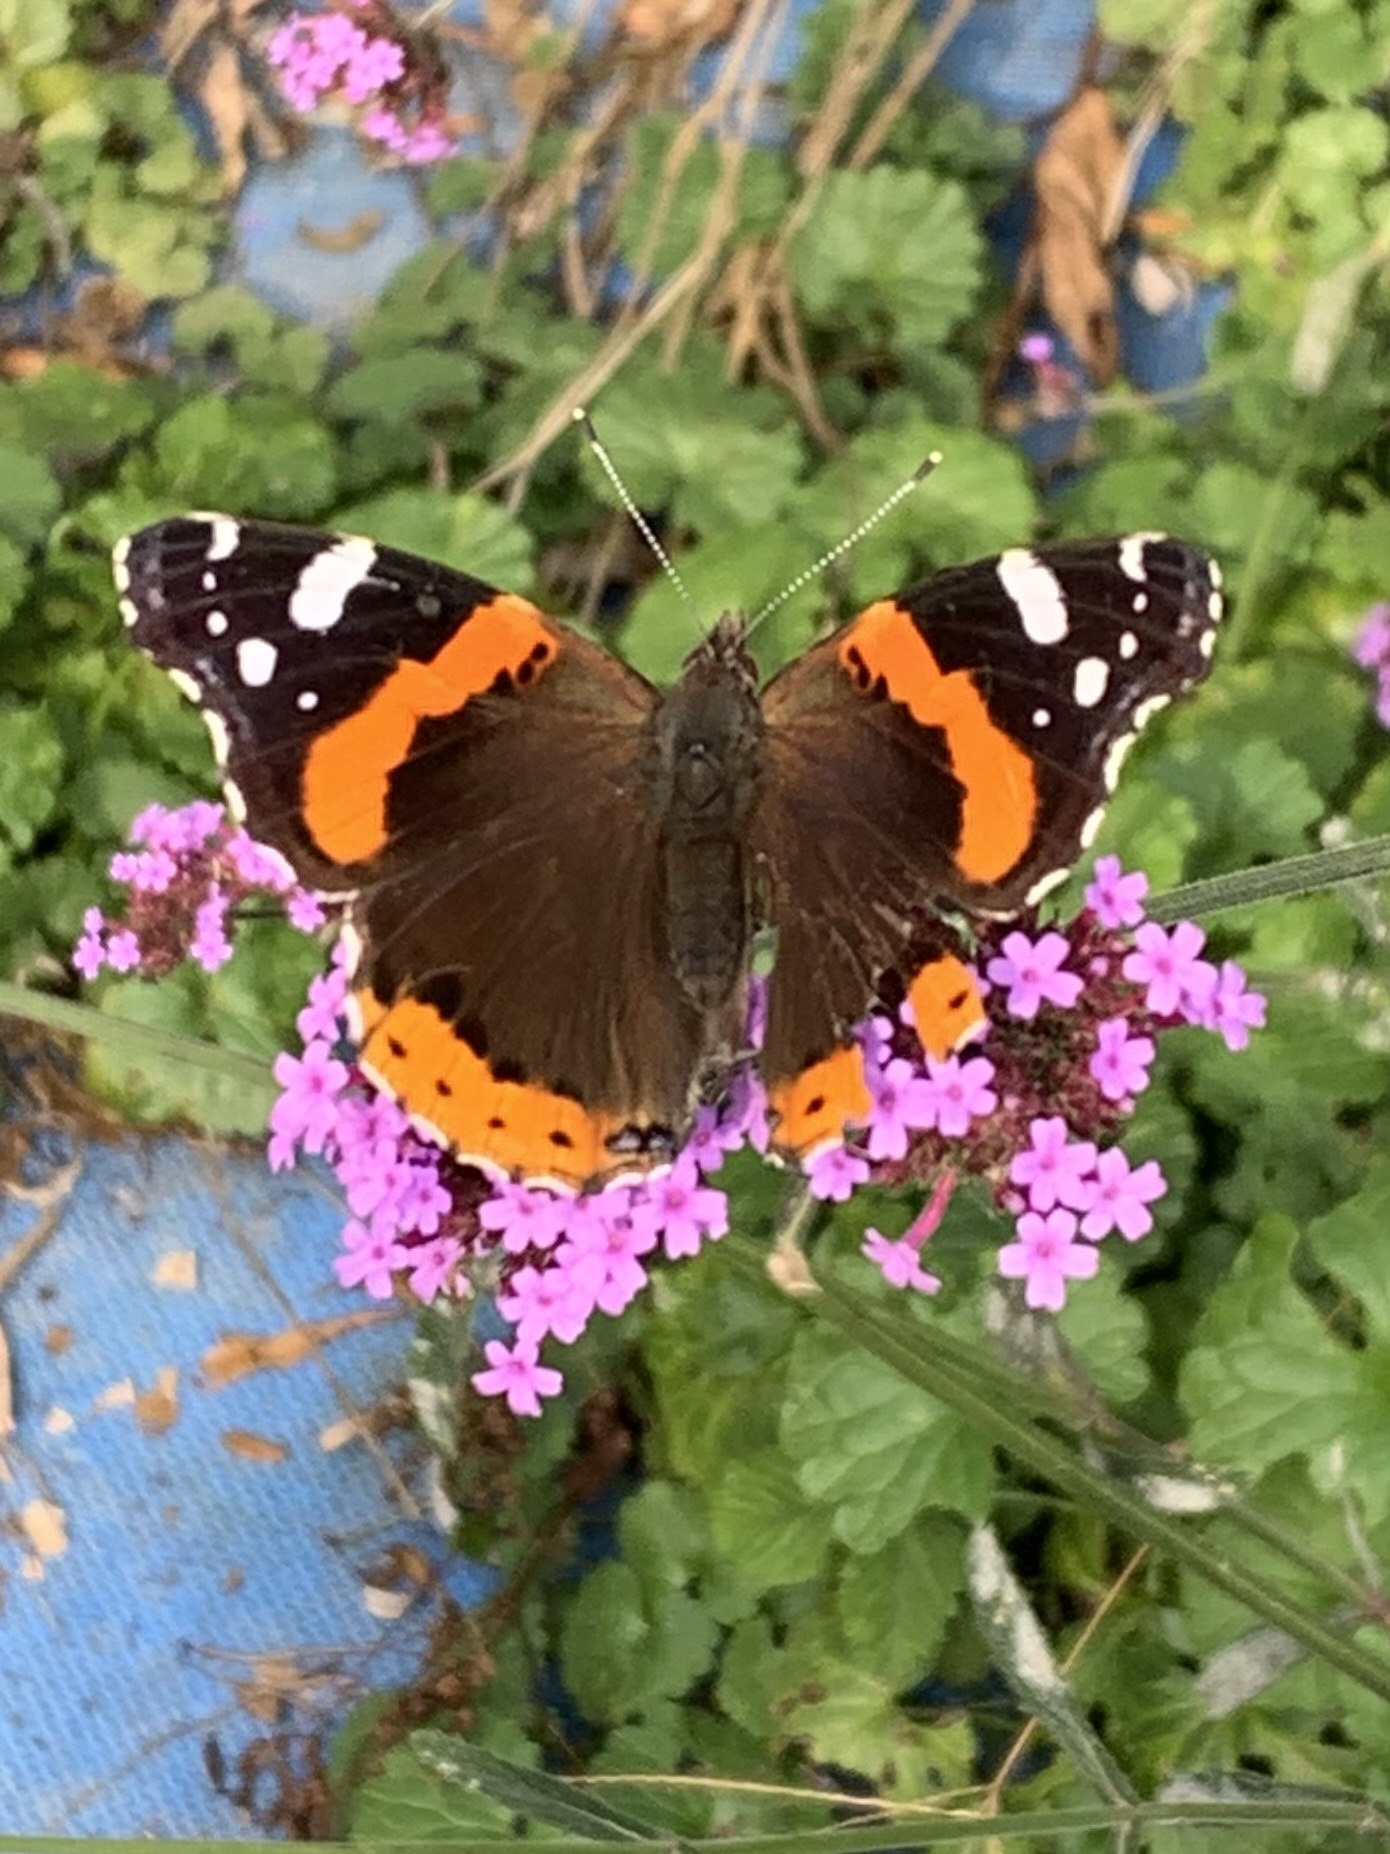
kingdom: Animalia
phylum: Arthropoda
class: Insecta
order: Lepidoptera
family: Nymphalidae
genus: Vanessa
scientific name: Vanessa atalanta
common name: Red admiral
